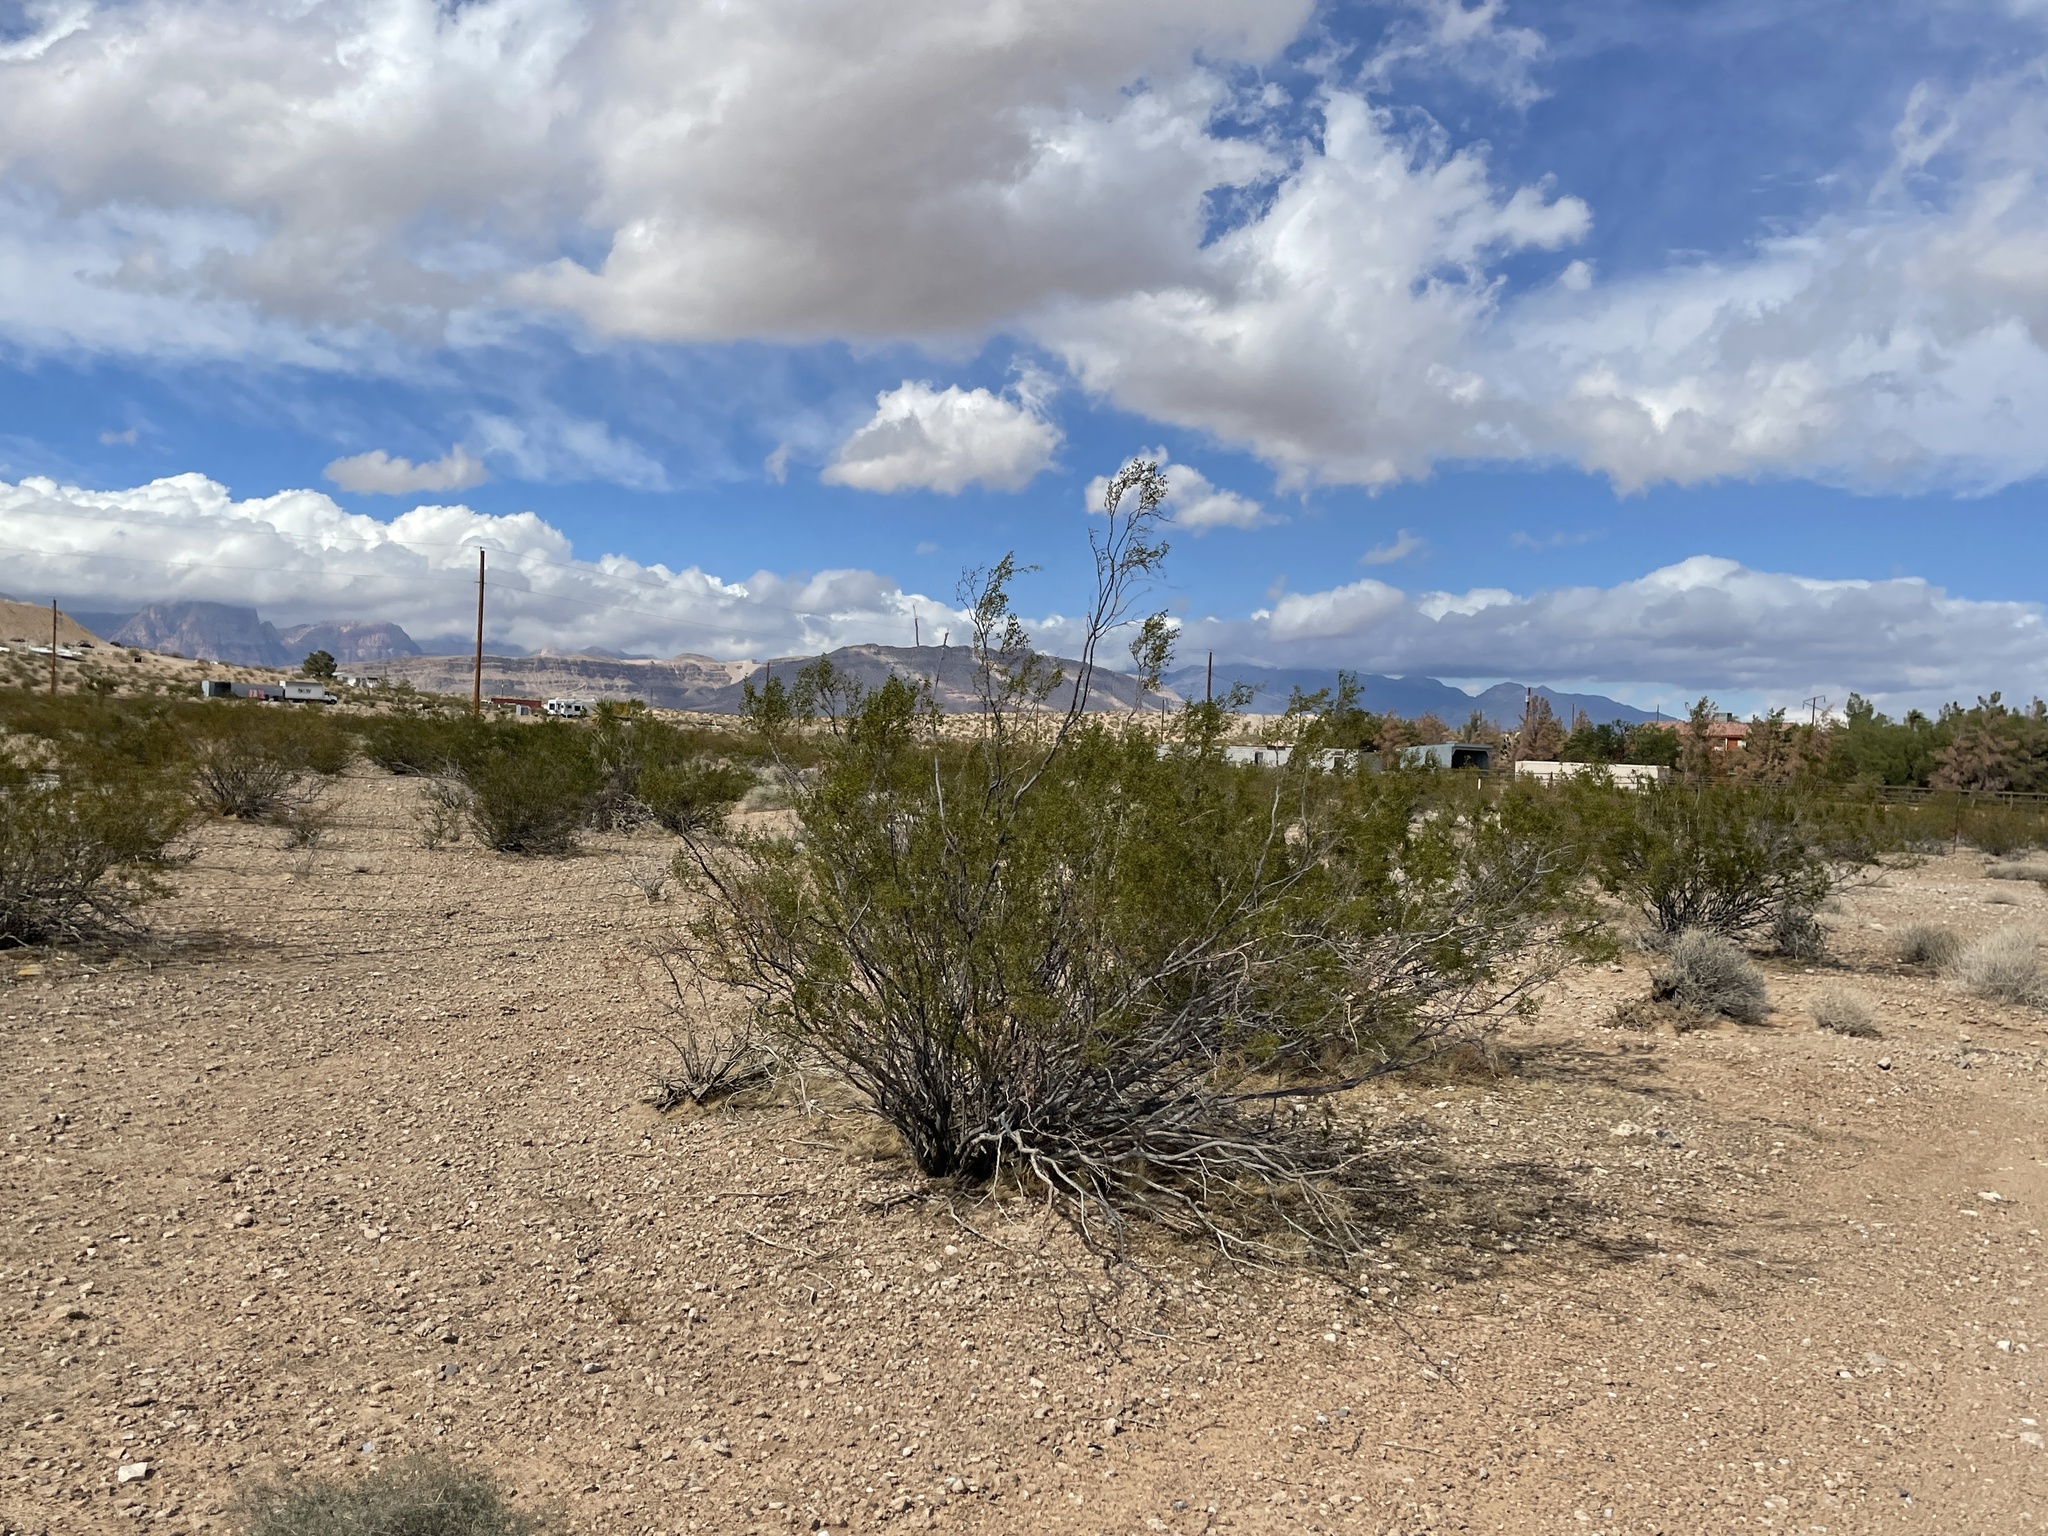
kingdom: Plantae
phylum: Tracheophyta
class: Magnoliopsida
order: Zygophyllales
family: Zygophyllaceae
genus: Larrea
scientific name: Larrea tridentata
